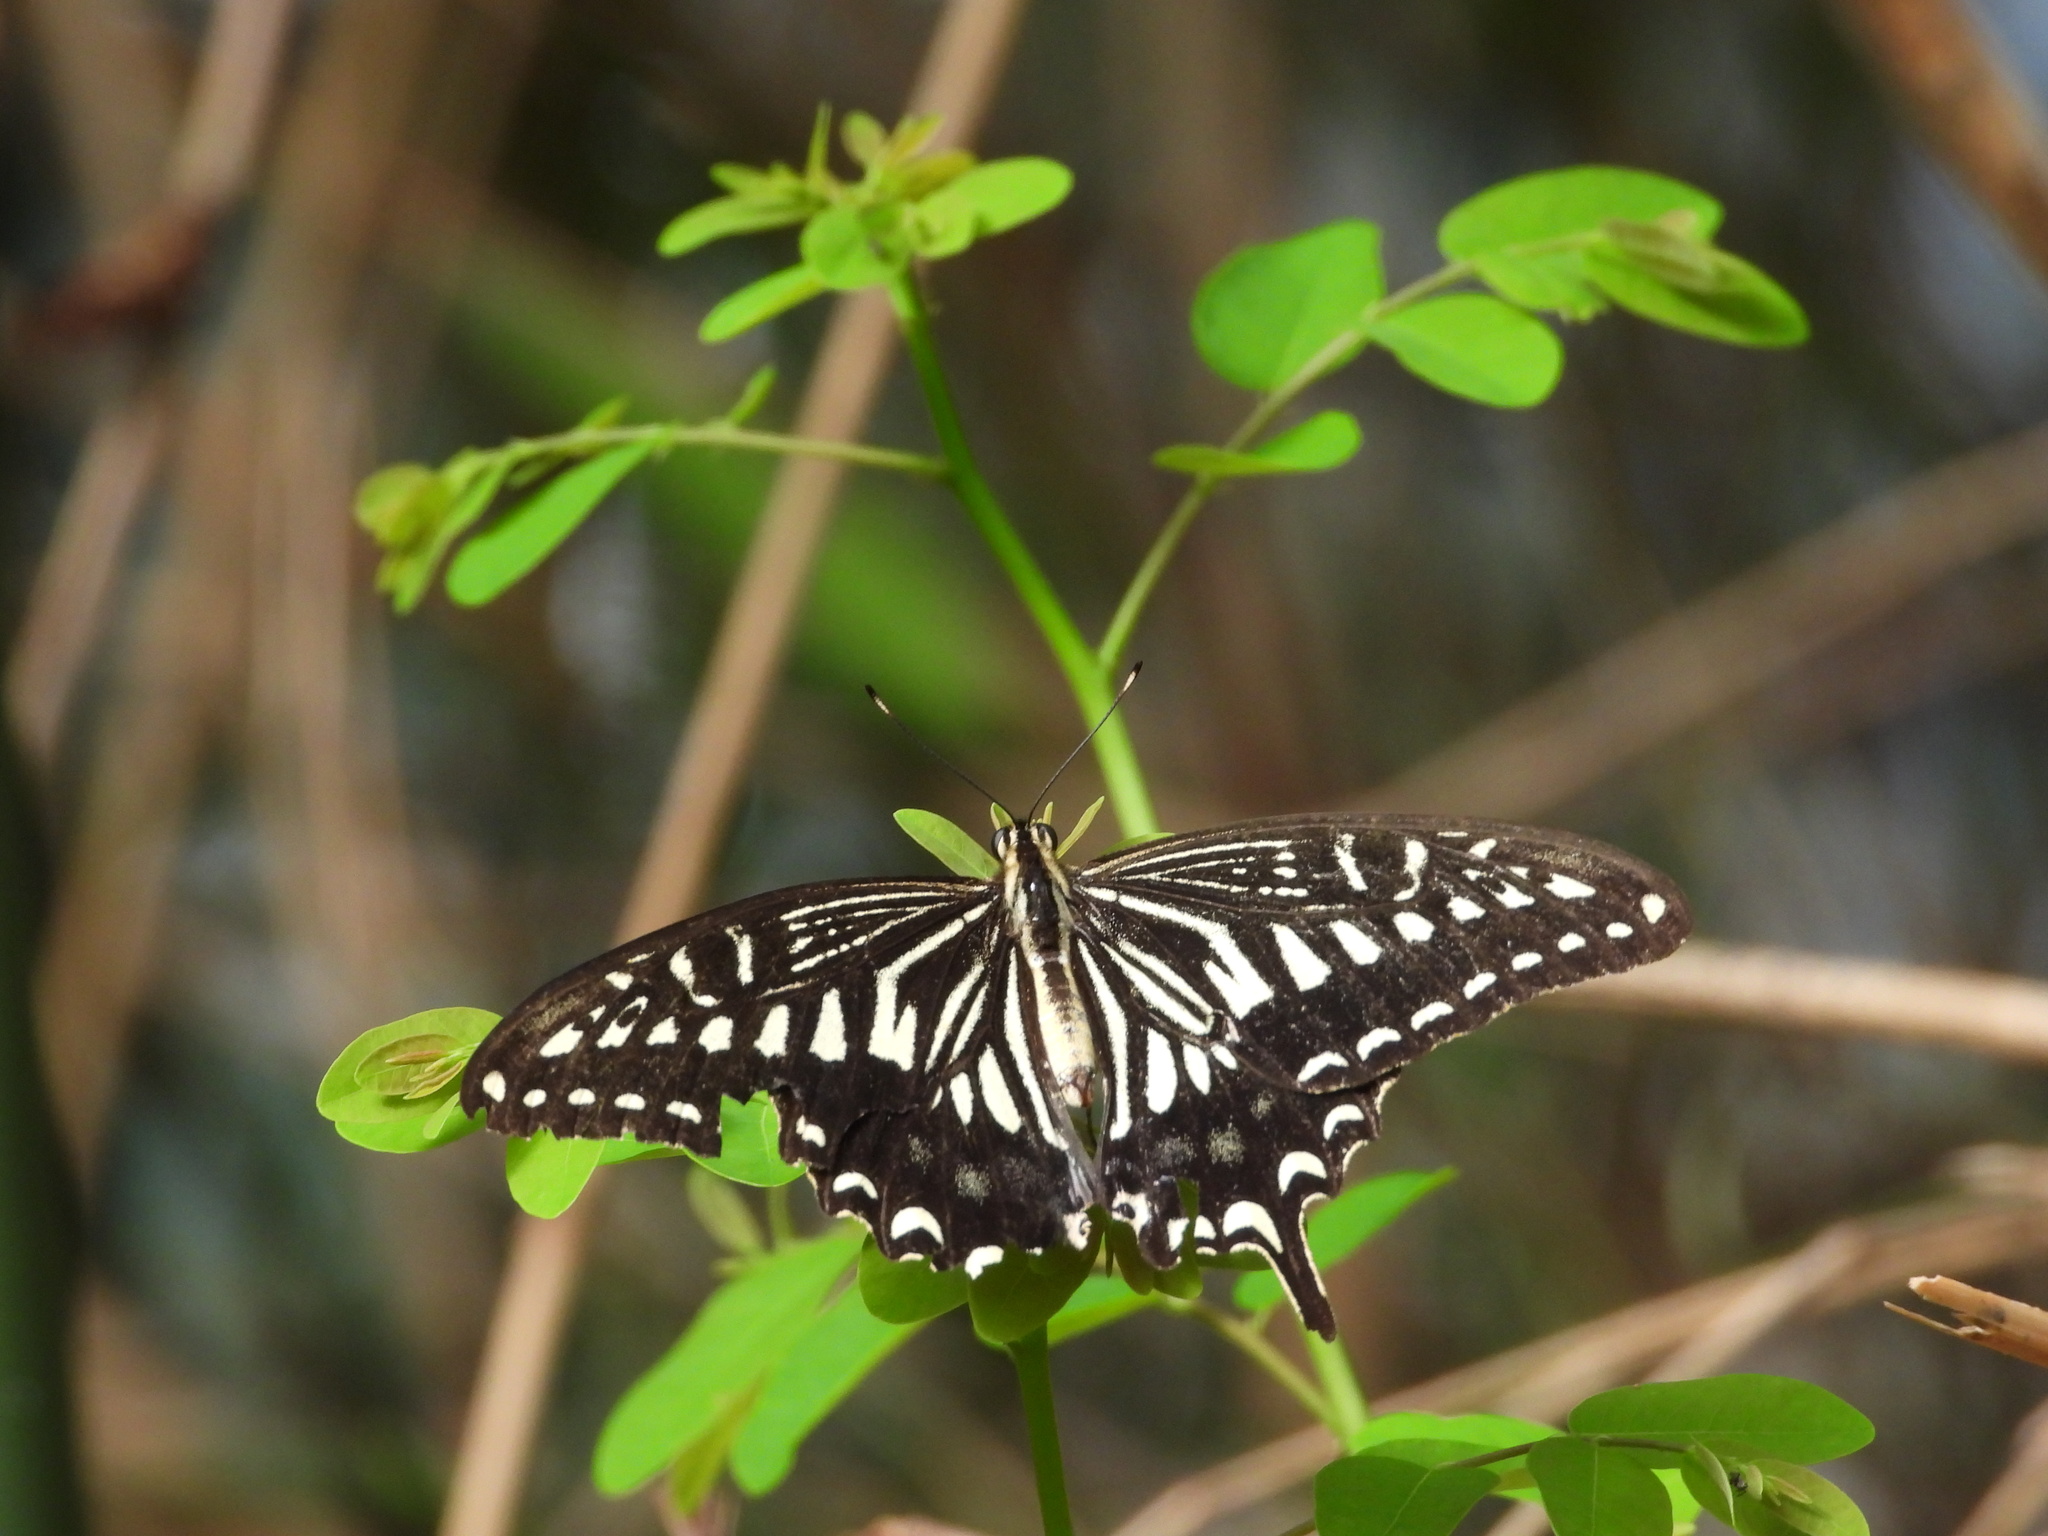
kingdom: Animalia
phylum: Arthropoda
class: Insecta
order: Lepidoptera
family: Papilionidae
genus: Papilio
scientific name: Papilio xuthus
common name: Asian swallowtail
